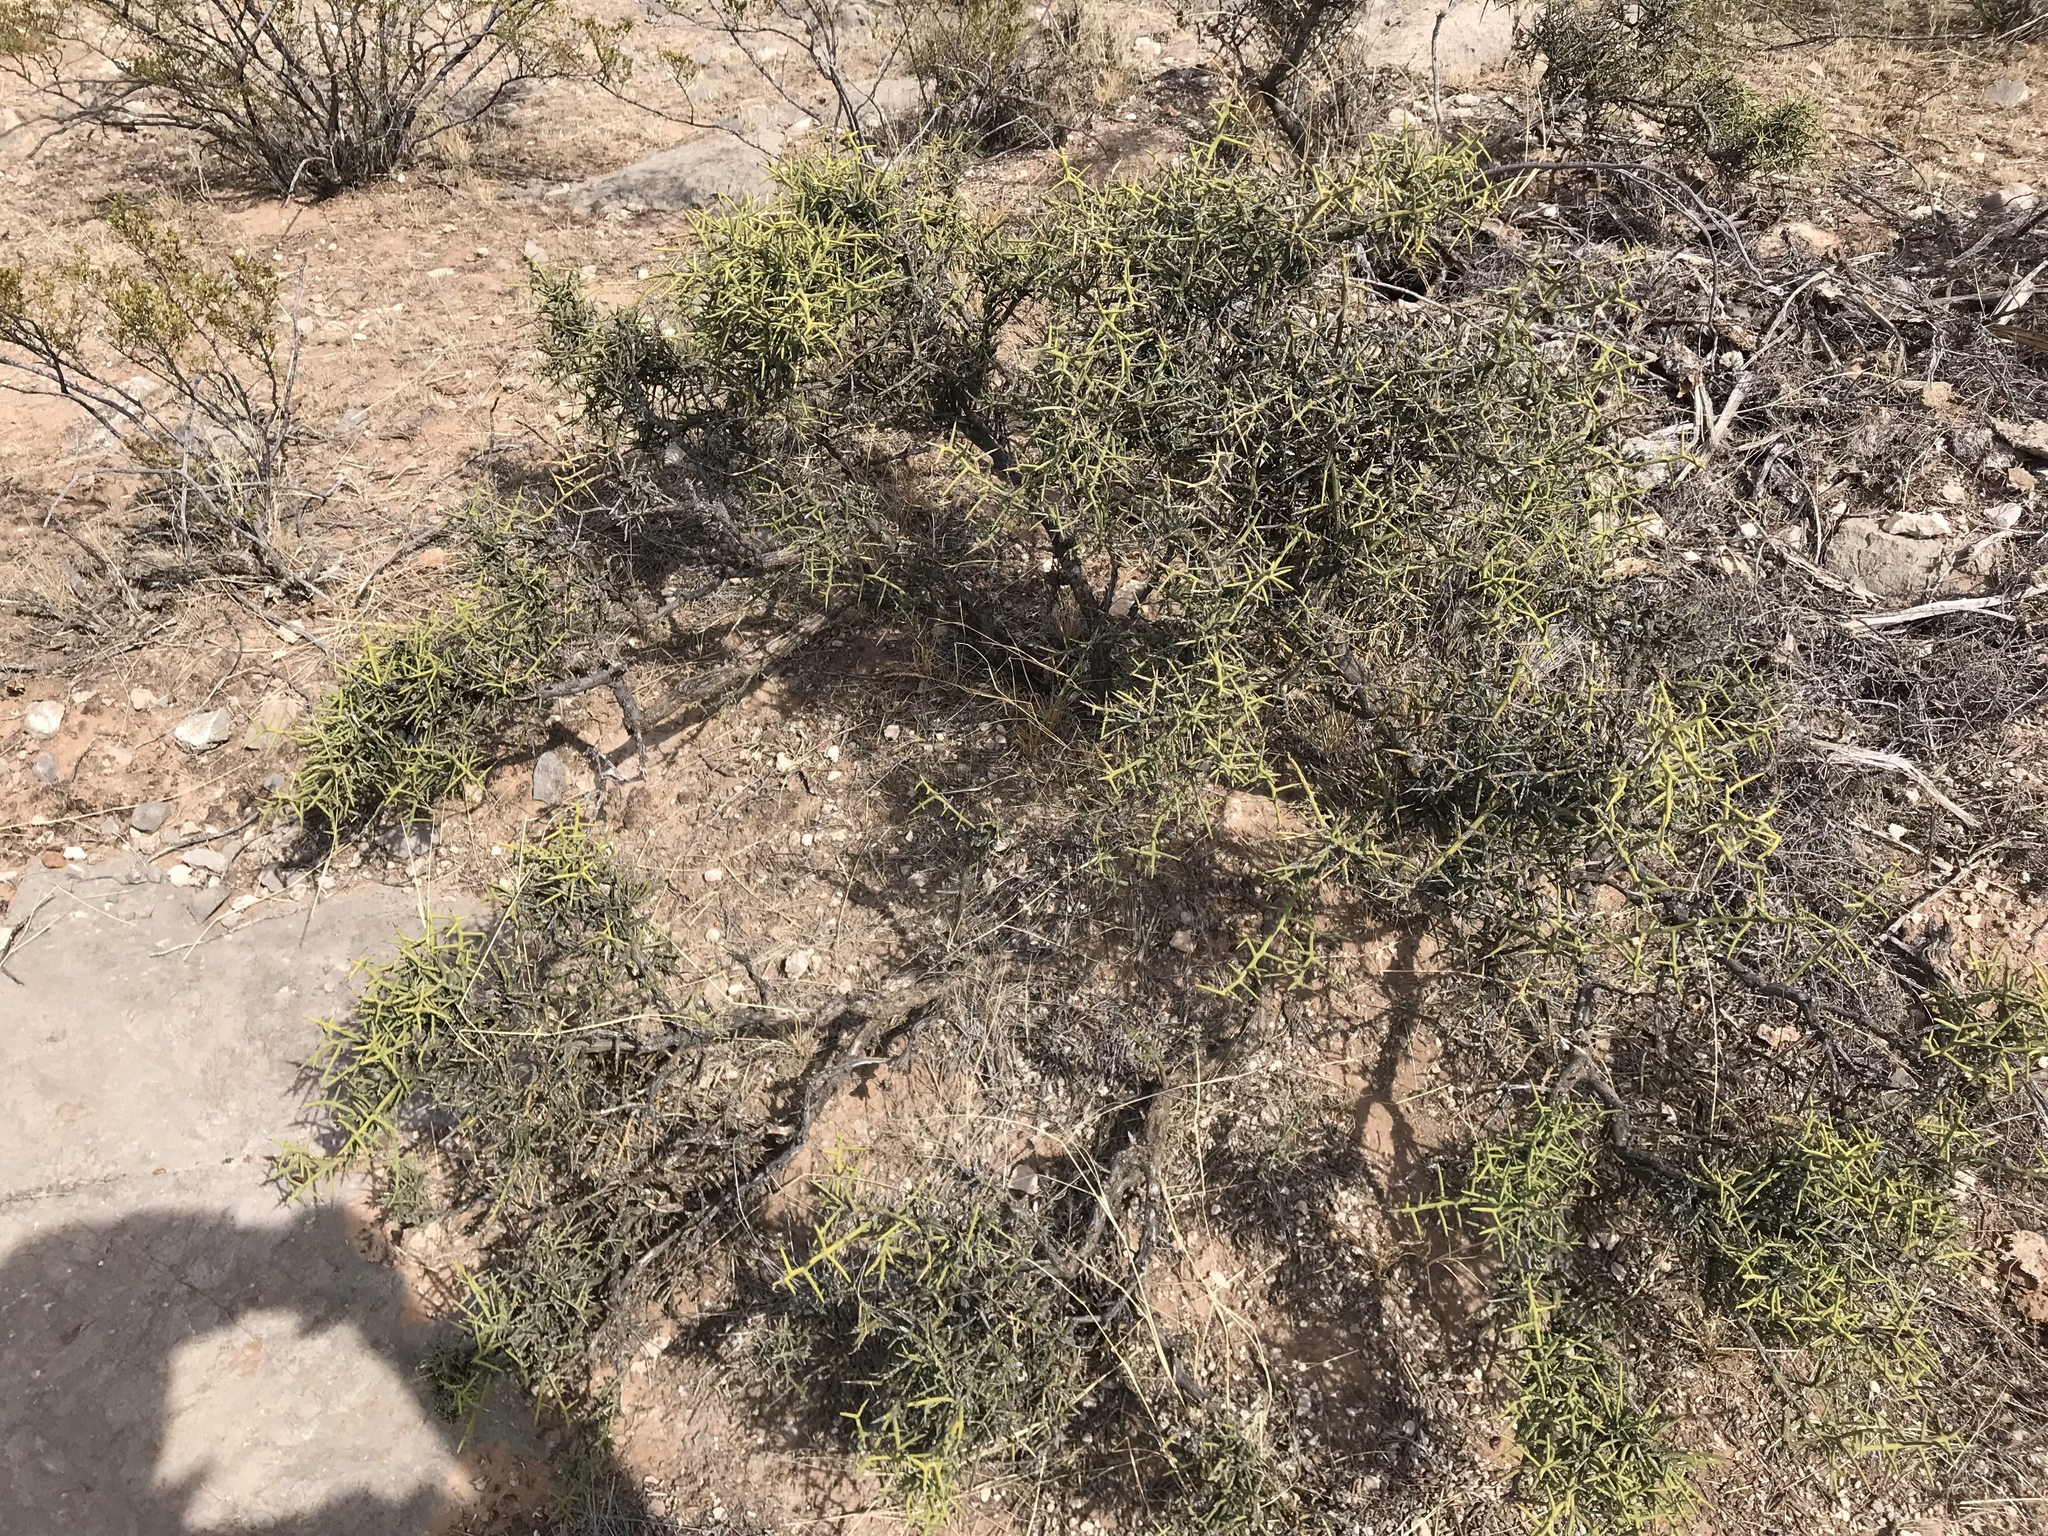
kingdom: Plantae
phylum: Tracheophyta
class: Magnoliopsida
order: Brassicales
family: Koeberliniaceae
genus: Koeberlinia
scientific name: Koeberlinia spinosa
